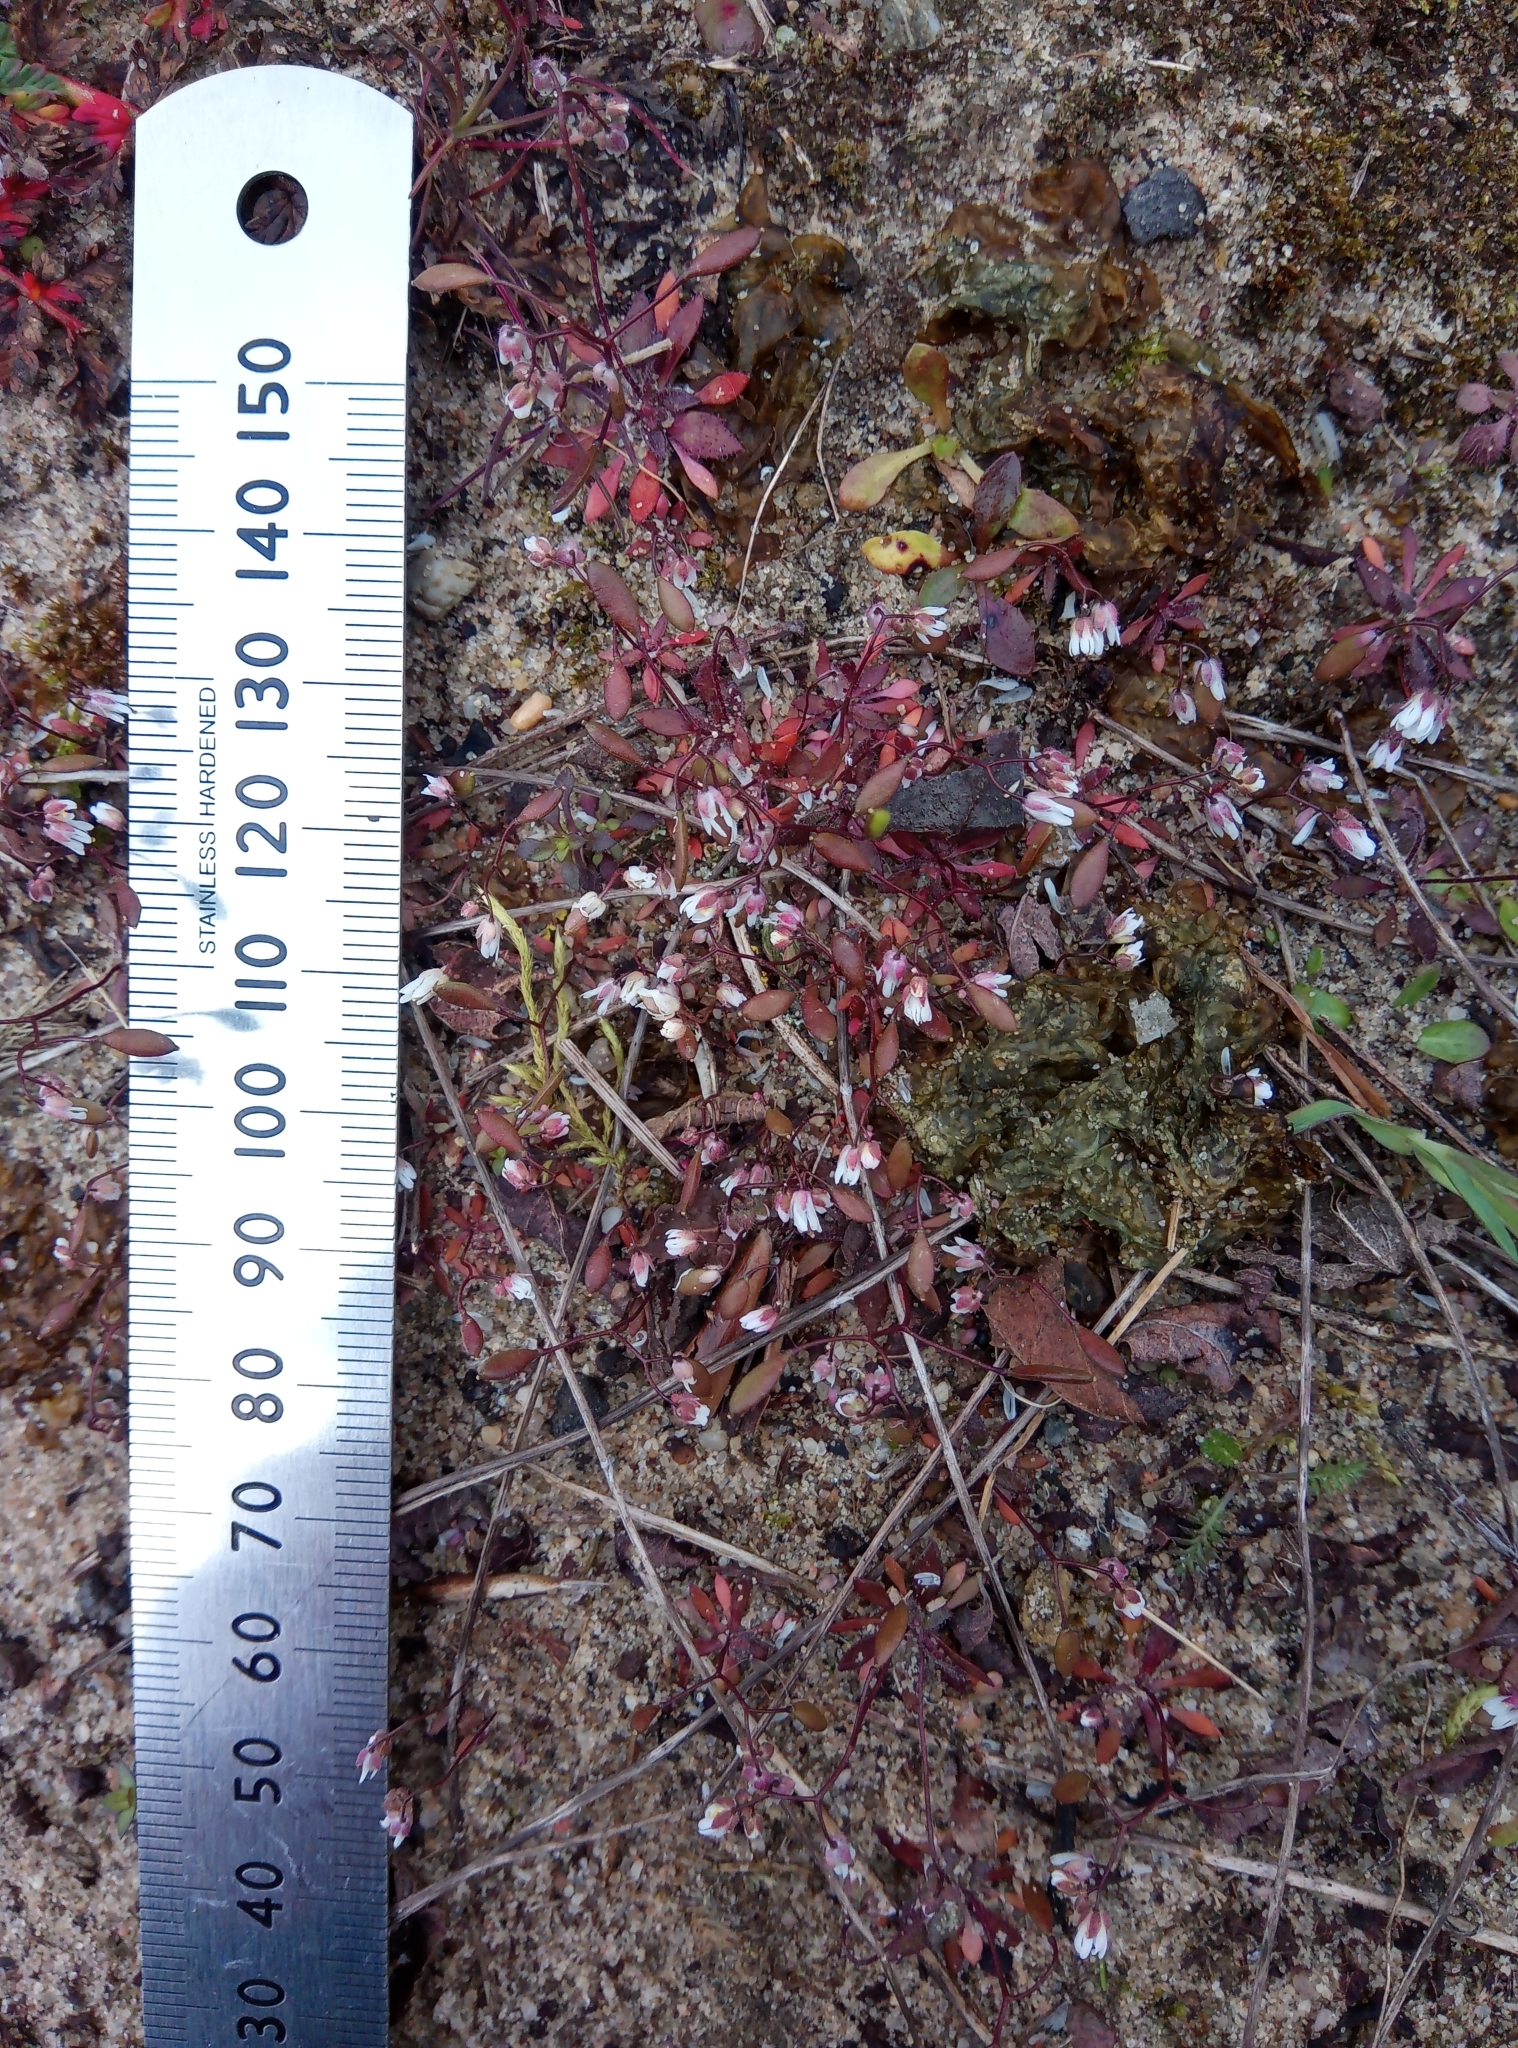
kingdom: Plantae
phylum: Tracheophyta
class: Magnoliopsida
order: Brassicales
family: Brassicaceae
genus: Draba
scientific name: Draba verna
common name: Spring draba
